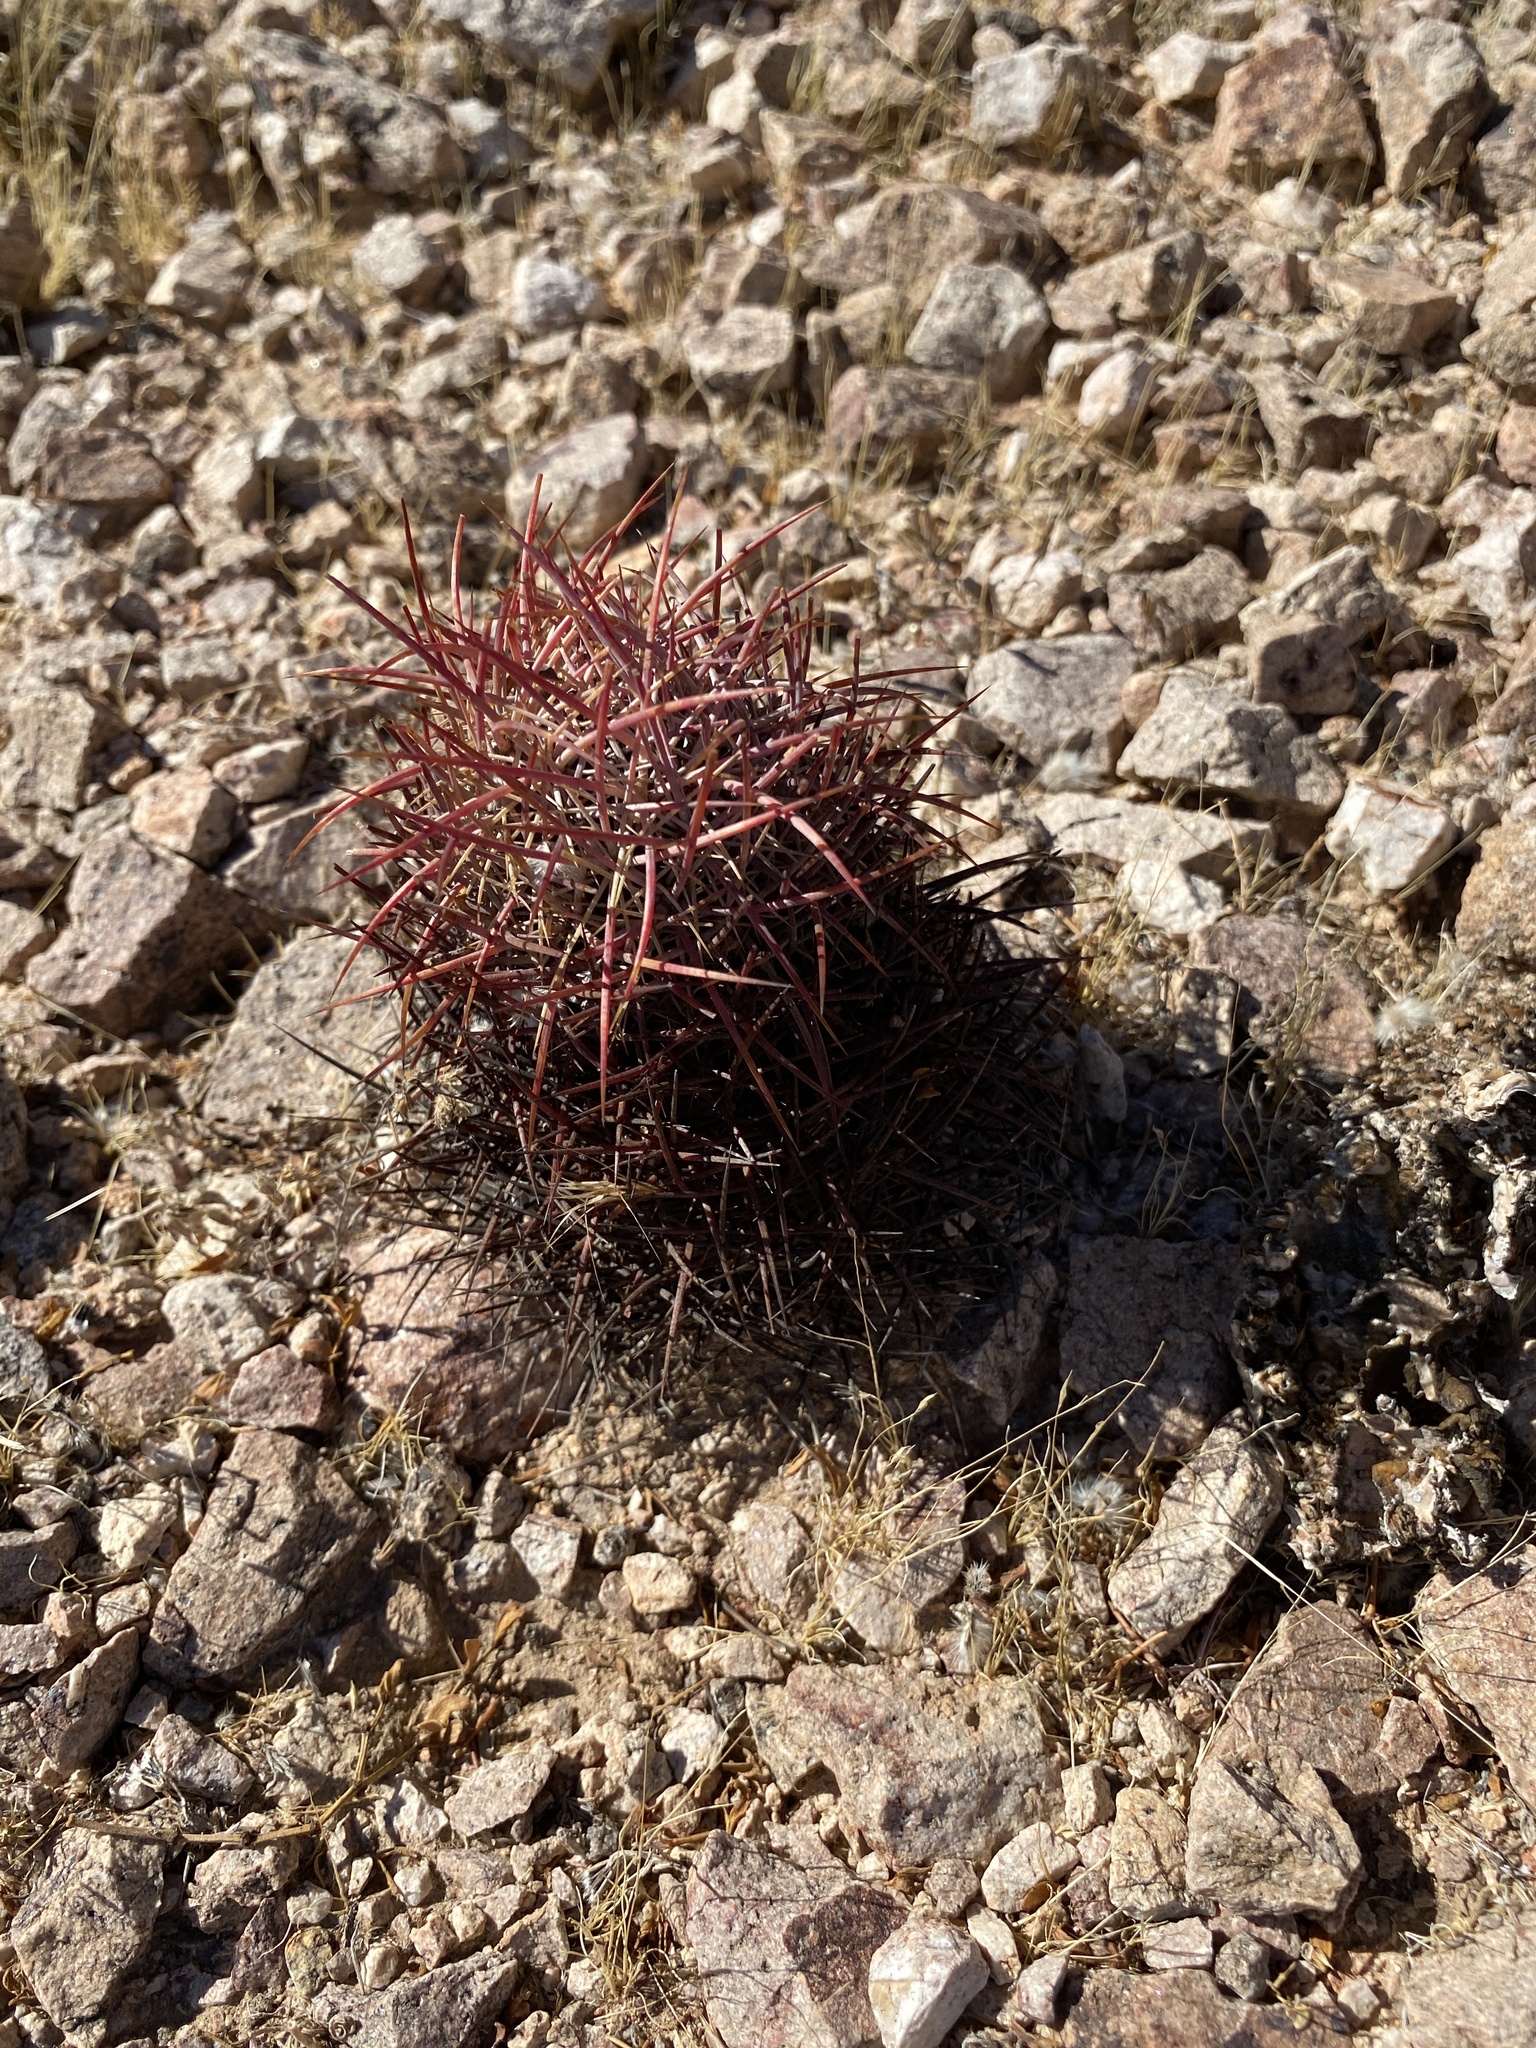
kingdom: Plantae
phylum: Tracheophyta
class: Magnoliopsida
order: Caryophyllales
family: Cactaceae
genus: Sclerocactus
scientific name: Sclerocactus johnsonii
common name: Eight-spine fishhook cactus
